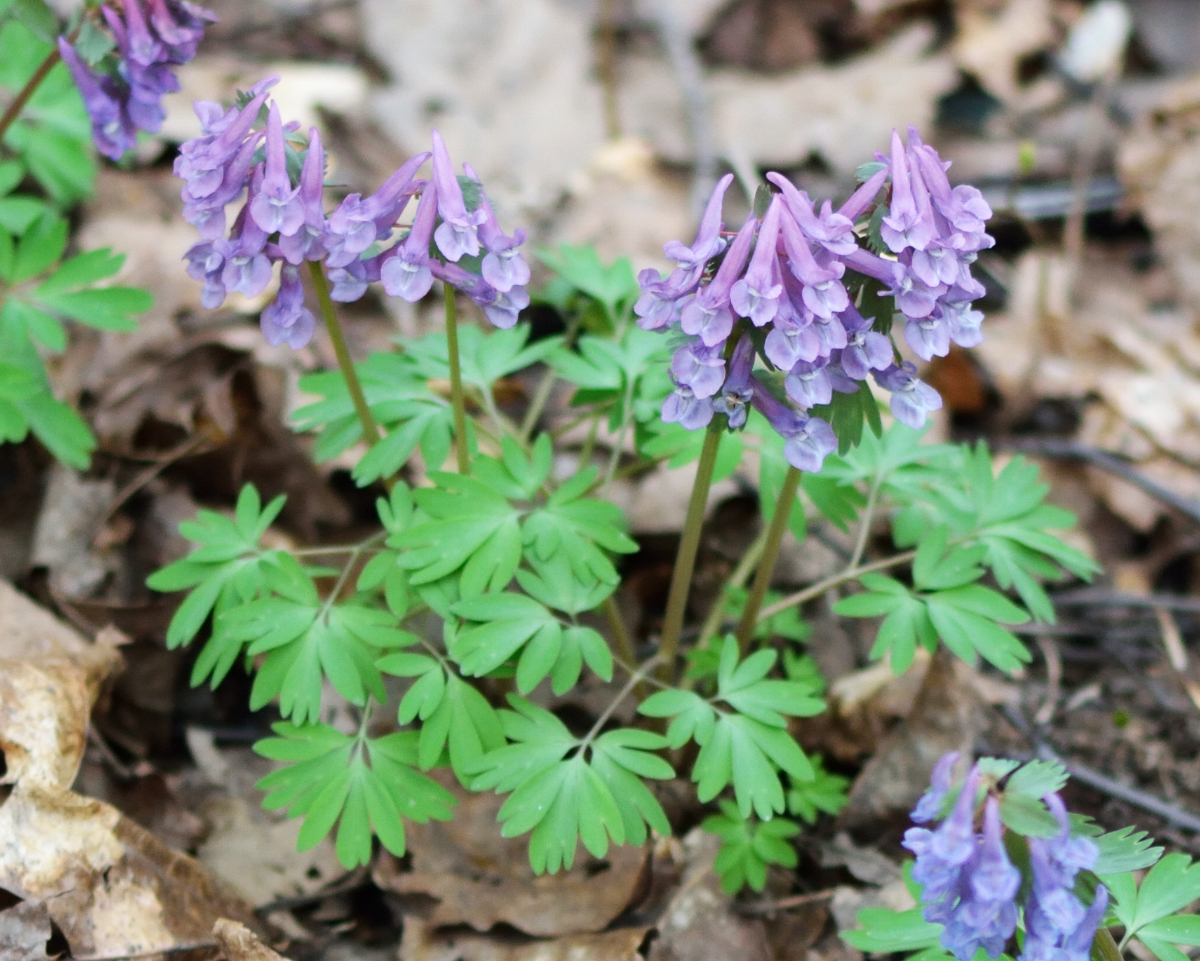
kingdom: Plantae
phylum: Tracheophyta
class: Magnoliopsida
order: Ranunculales
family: Papaveraceae
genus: Corydalis
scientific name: Corydalis solida
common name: Bird-in-a-bush
